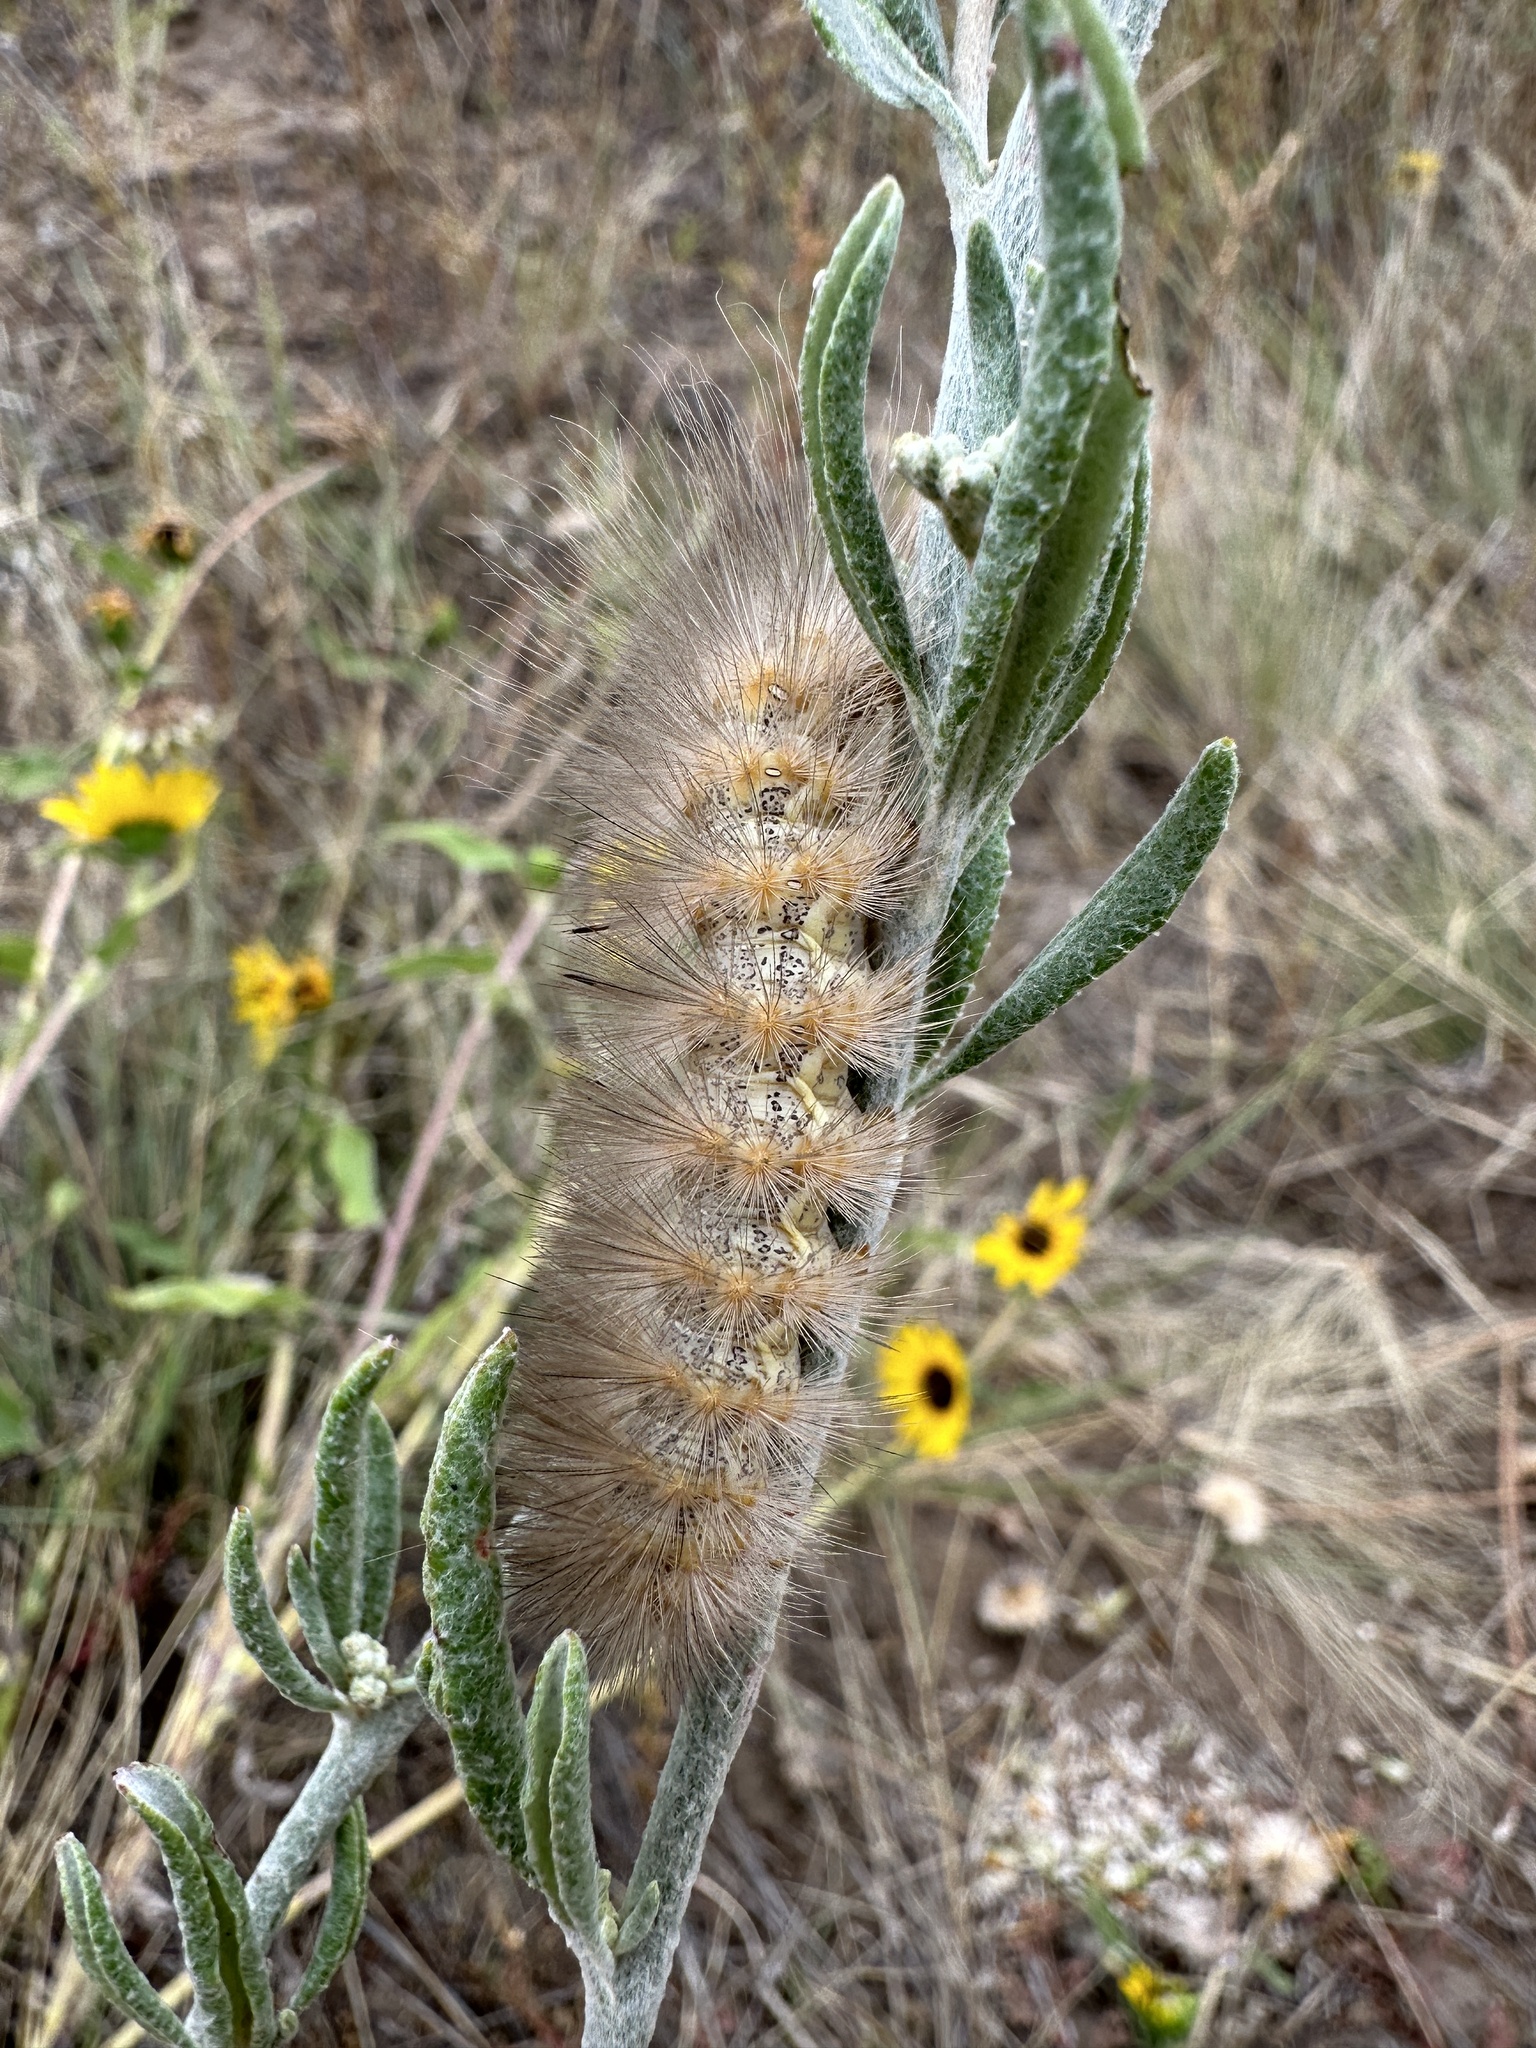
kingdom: Animalia
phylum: Arthropoda
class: Insecta
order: Lepidoptera
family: Erebidae
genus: Estigmene
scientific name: Estigmene
